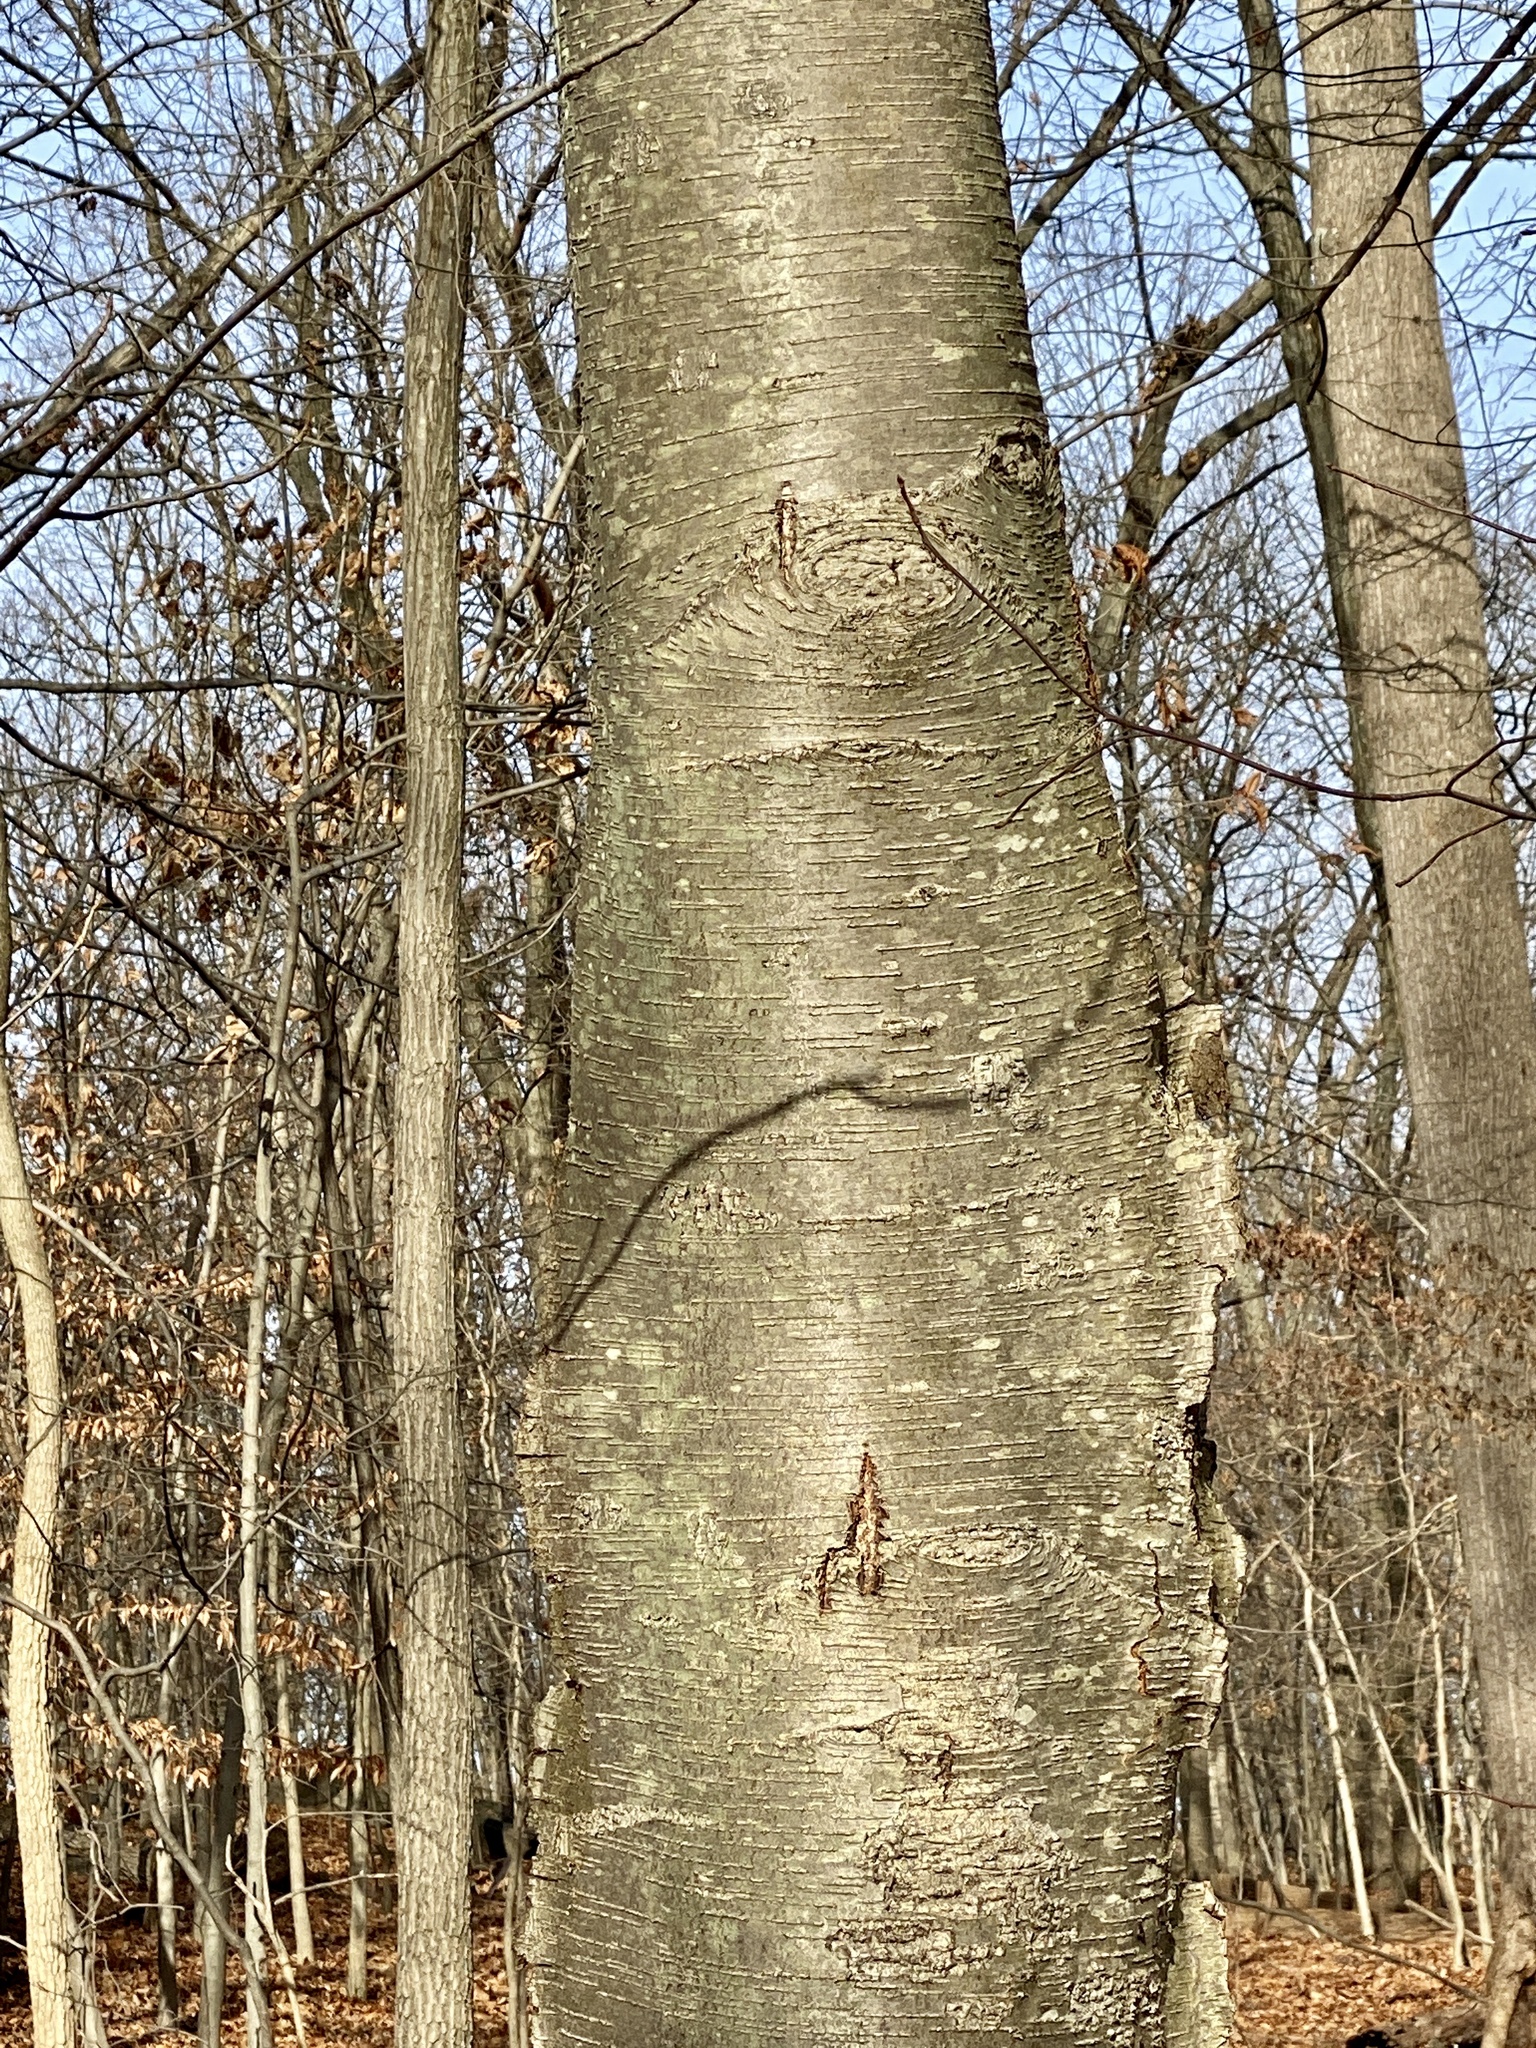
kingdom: Plantae
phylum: Tracheophyta
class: Magnoliopsida
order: Fagales
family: Betulaceae
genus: Betula
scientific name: Betula lenta
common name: Black birch
